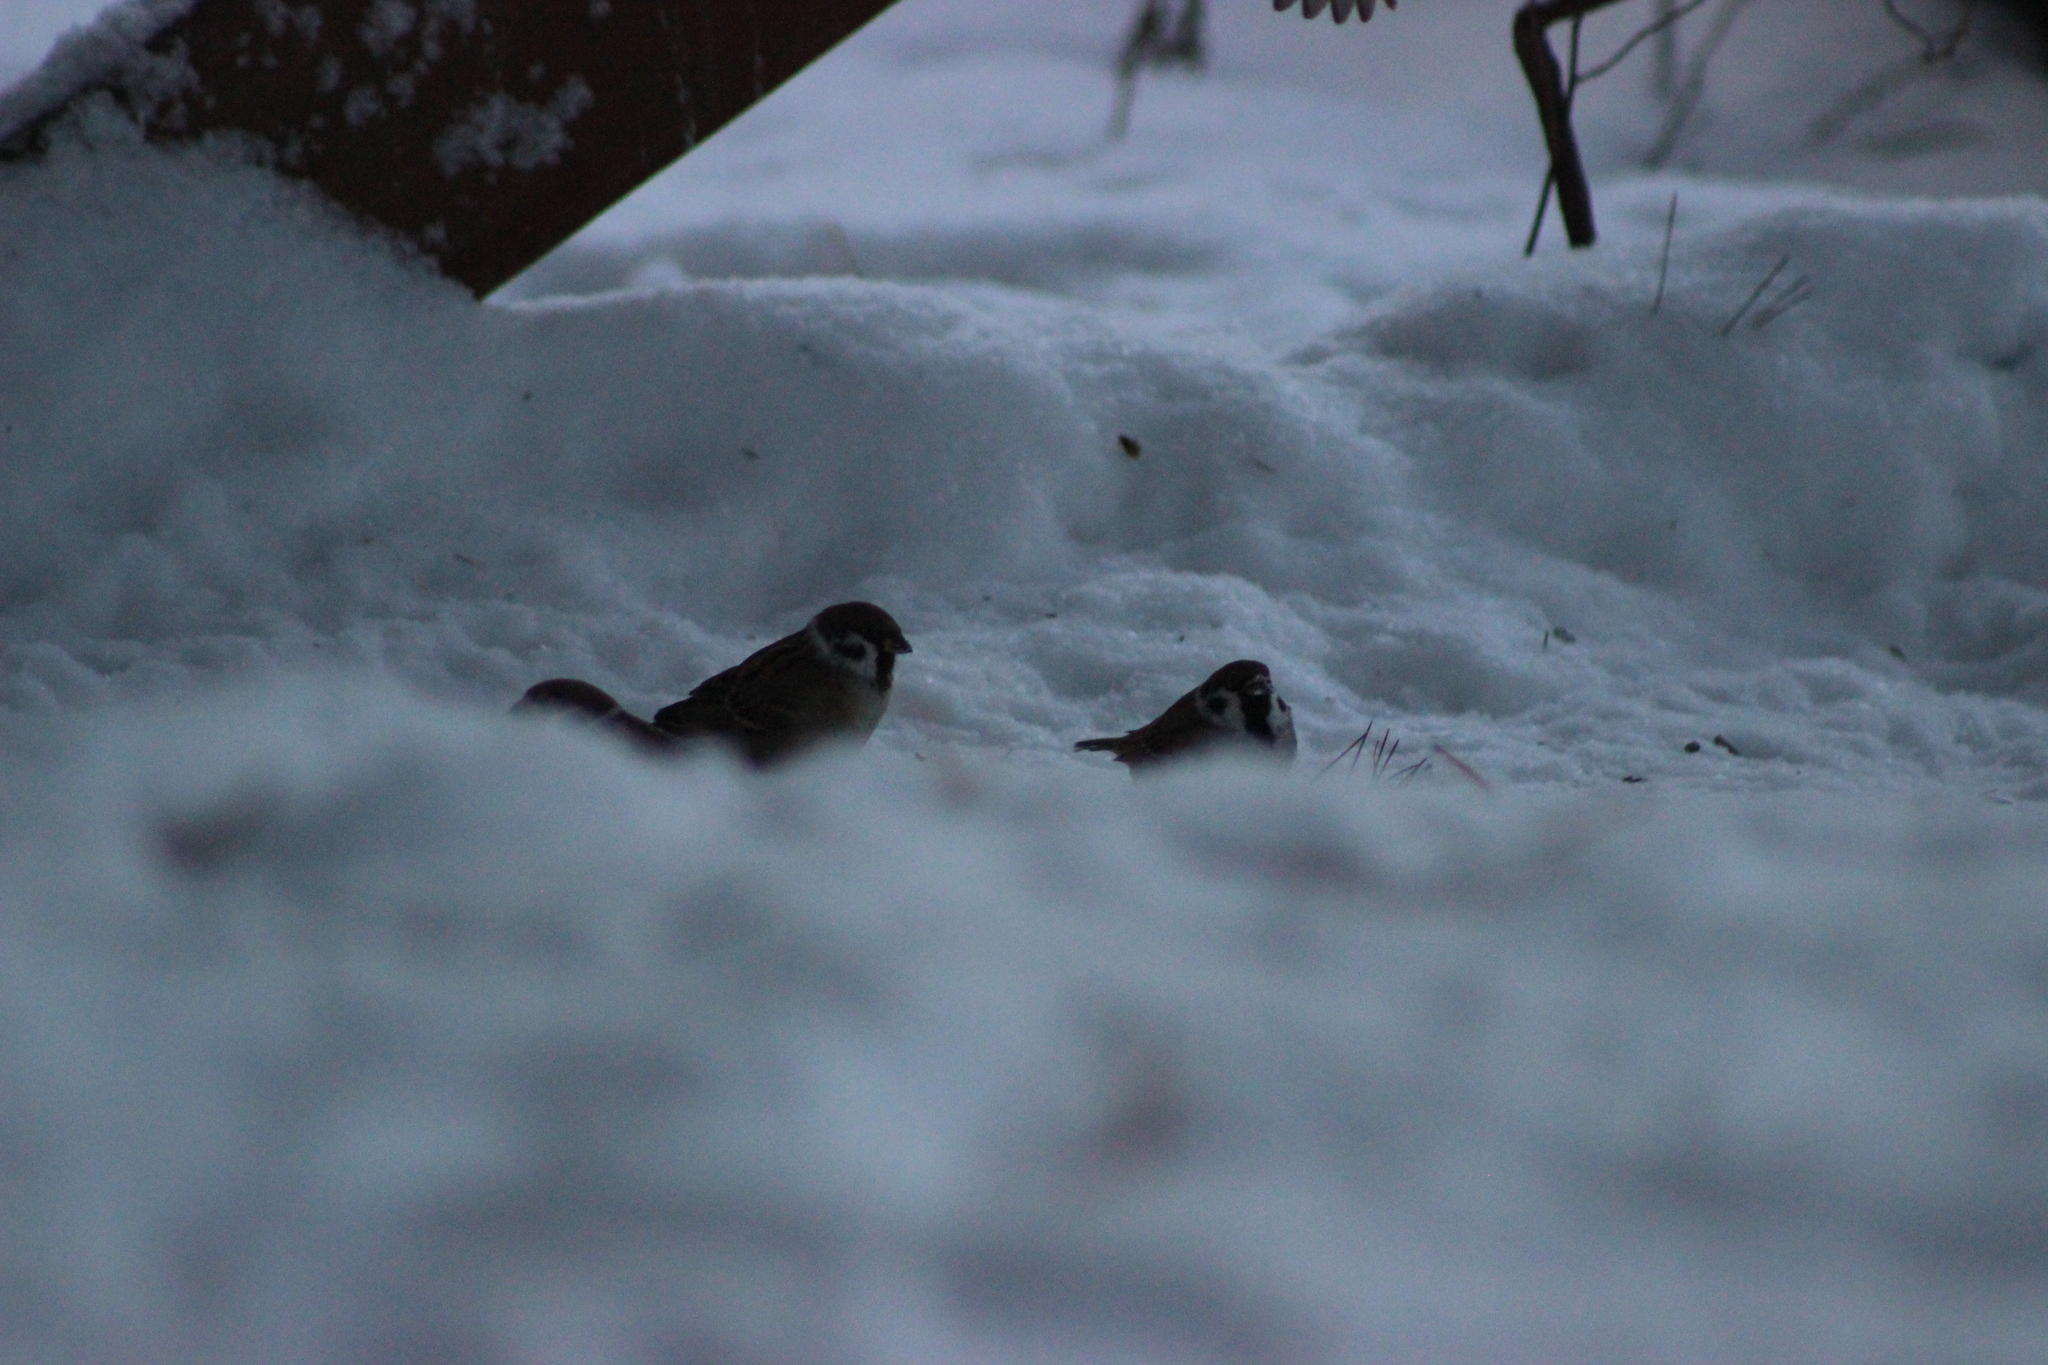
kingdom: Animalia
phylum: Chordata
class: Aves
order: Passeriformes
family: Passeridae
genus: Passer
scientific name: Passer montanus
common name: Eurasian tree sparrow
